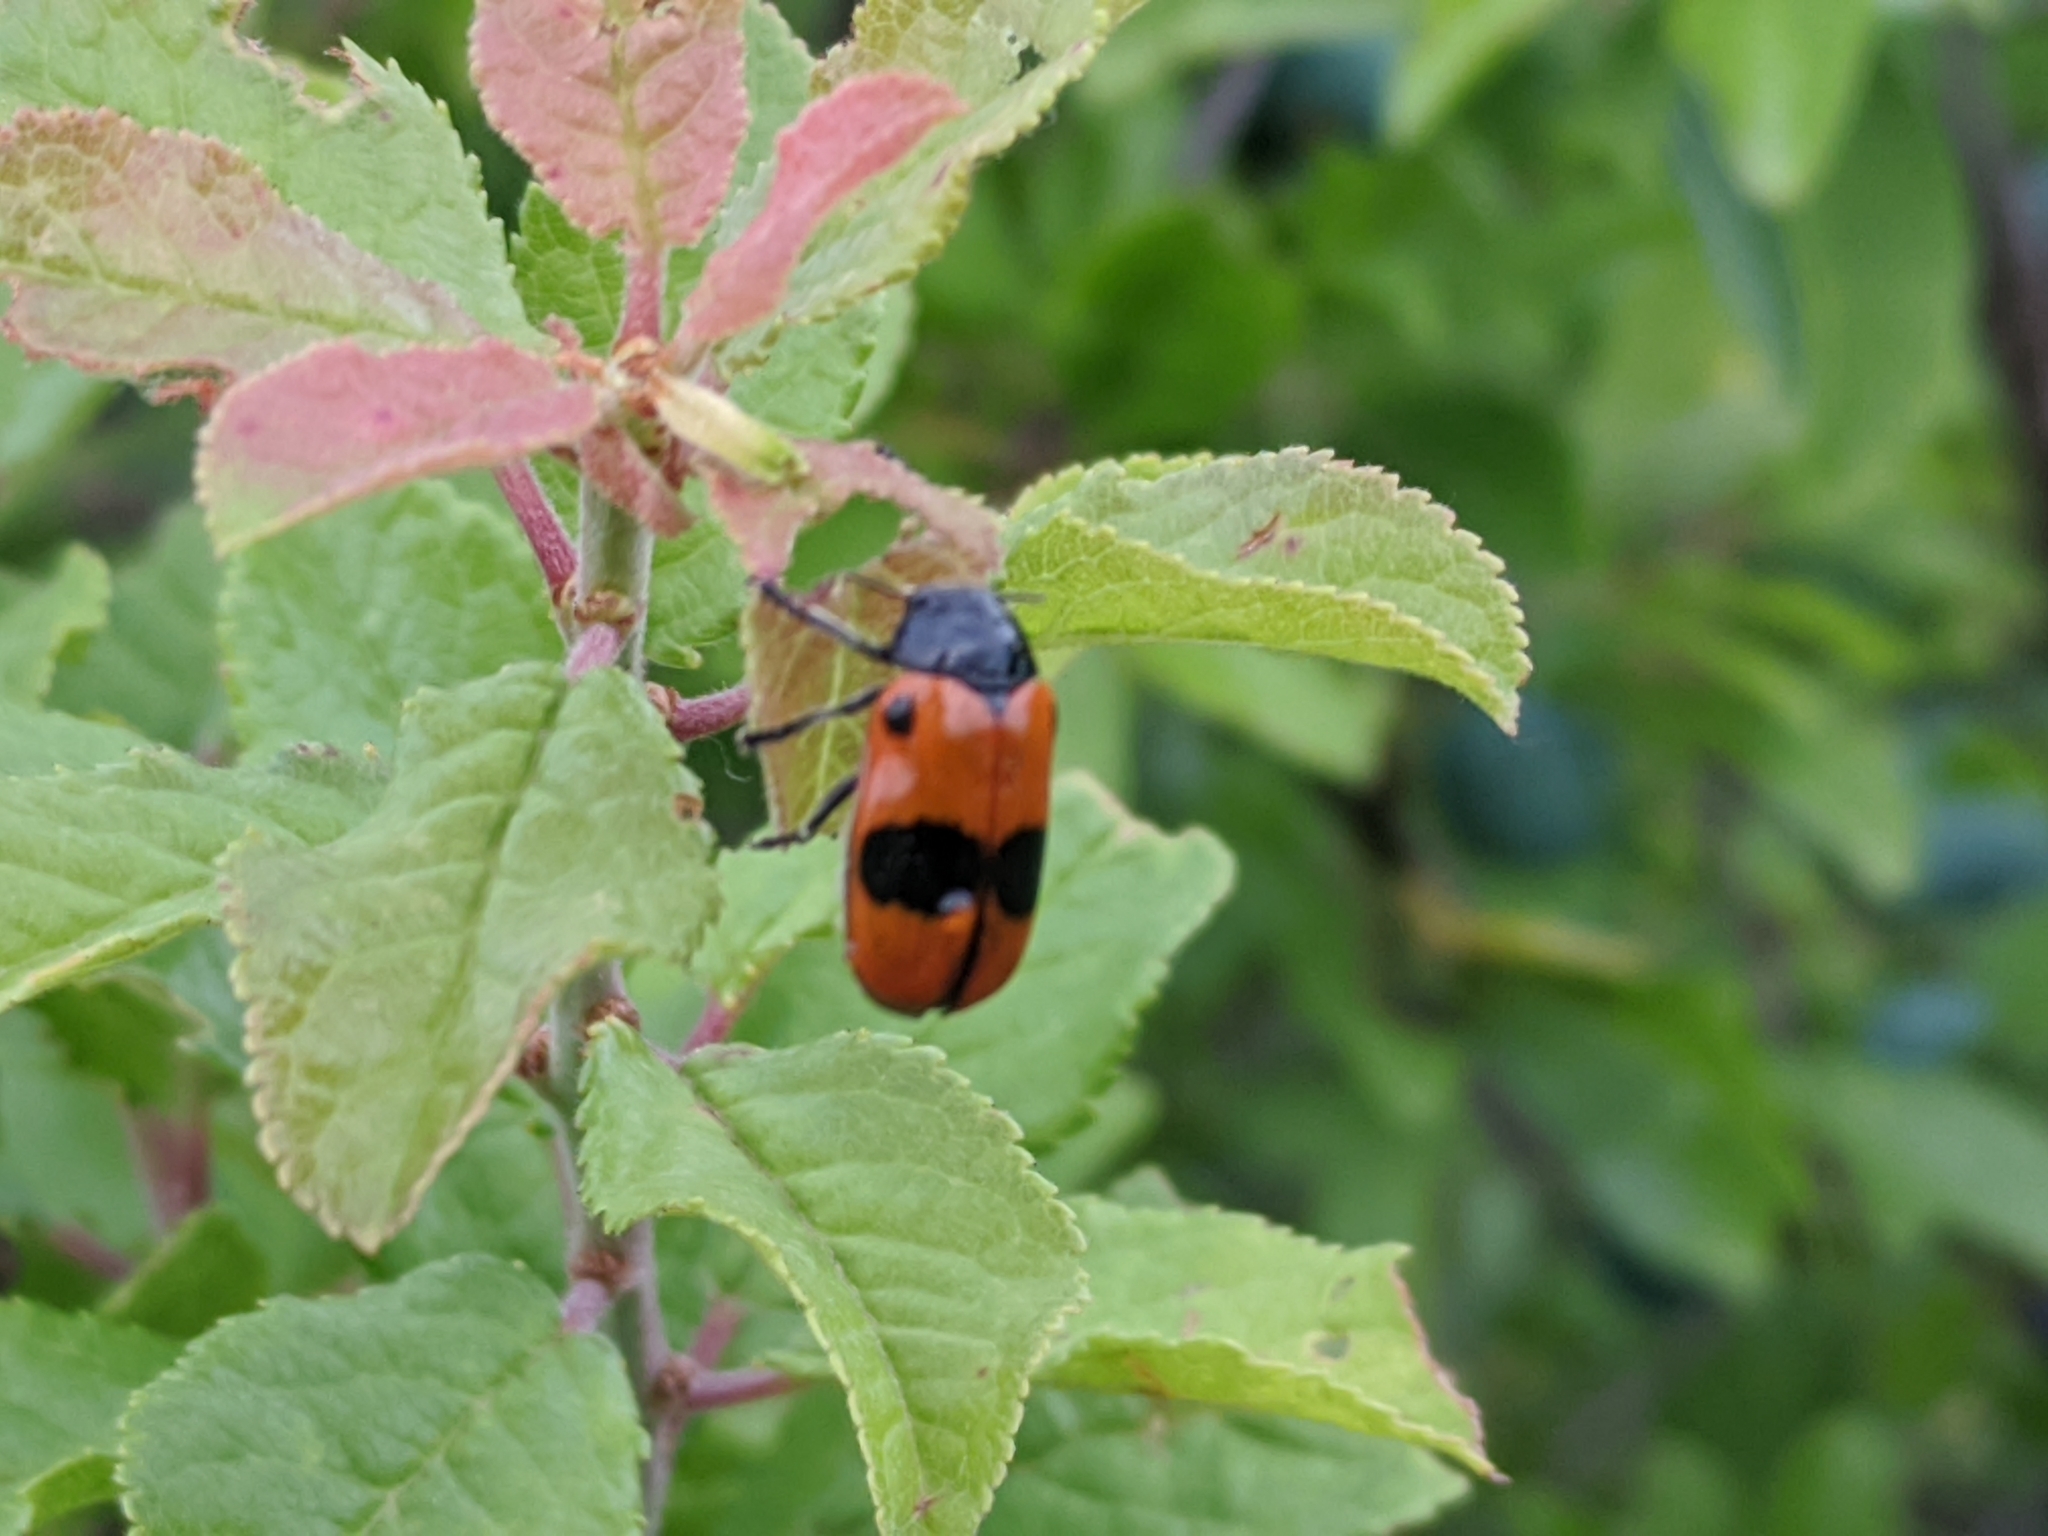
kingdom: Animalia
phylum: Arthropoda
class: Insecta
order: Coleoptera
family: Chrysomelidae
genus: Clytra
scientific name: Clytra laeviuscula
